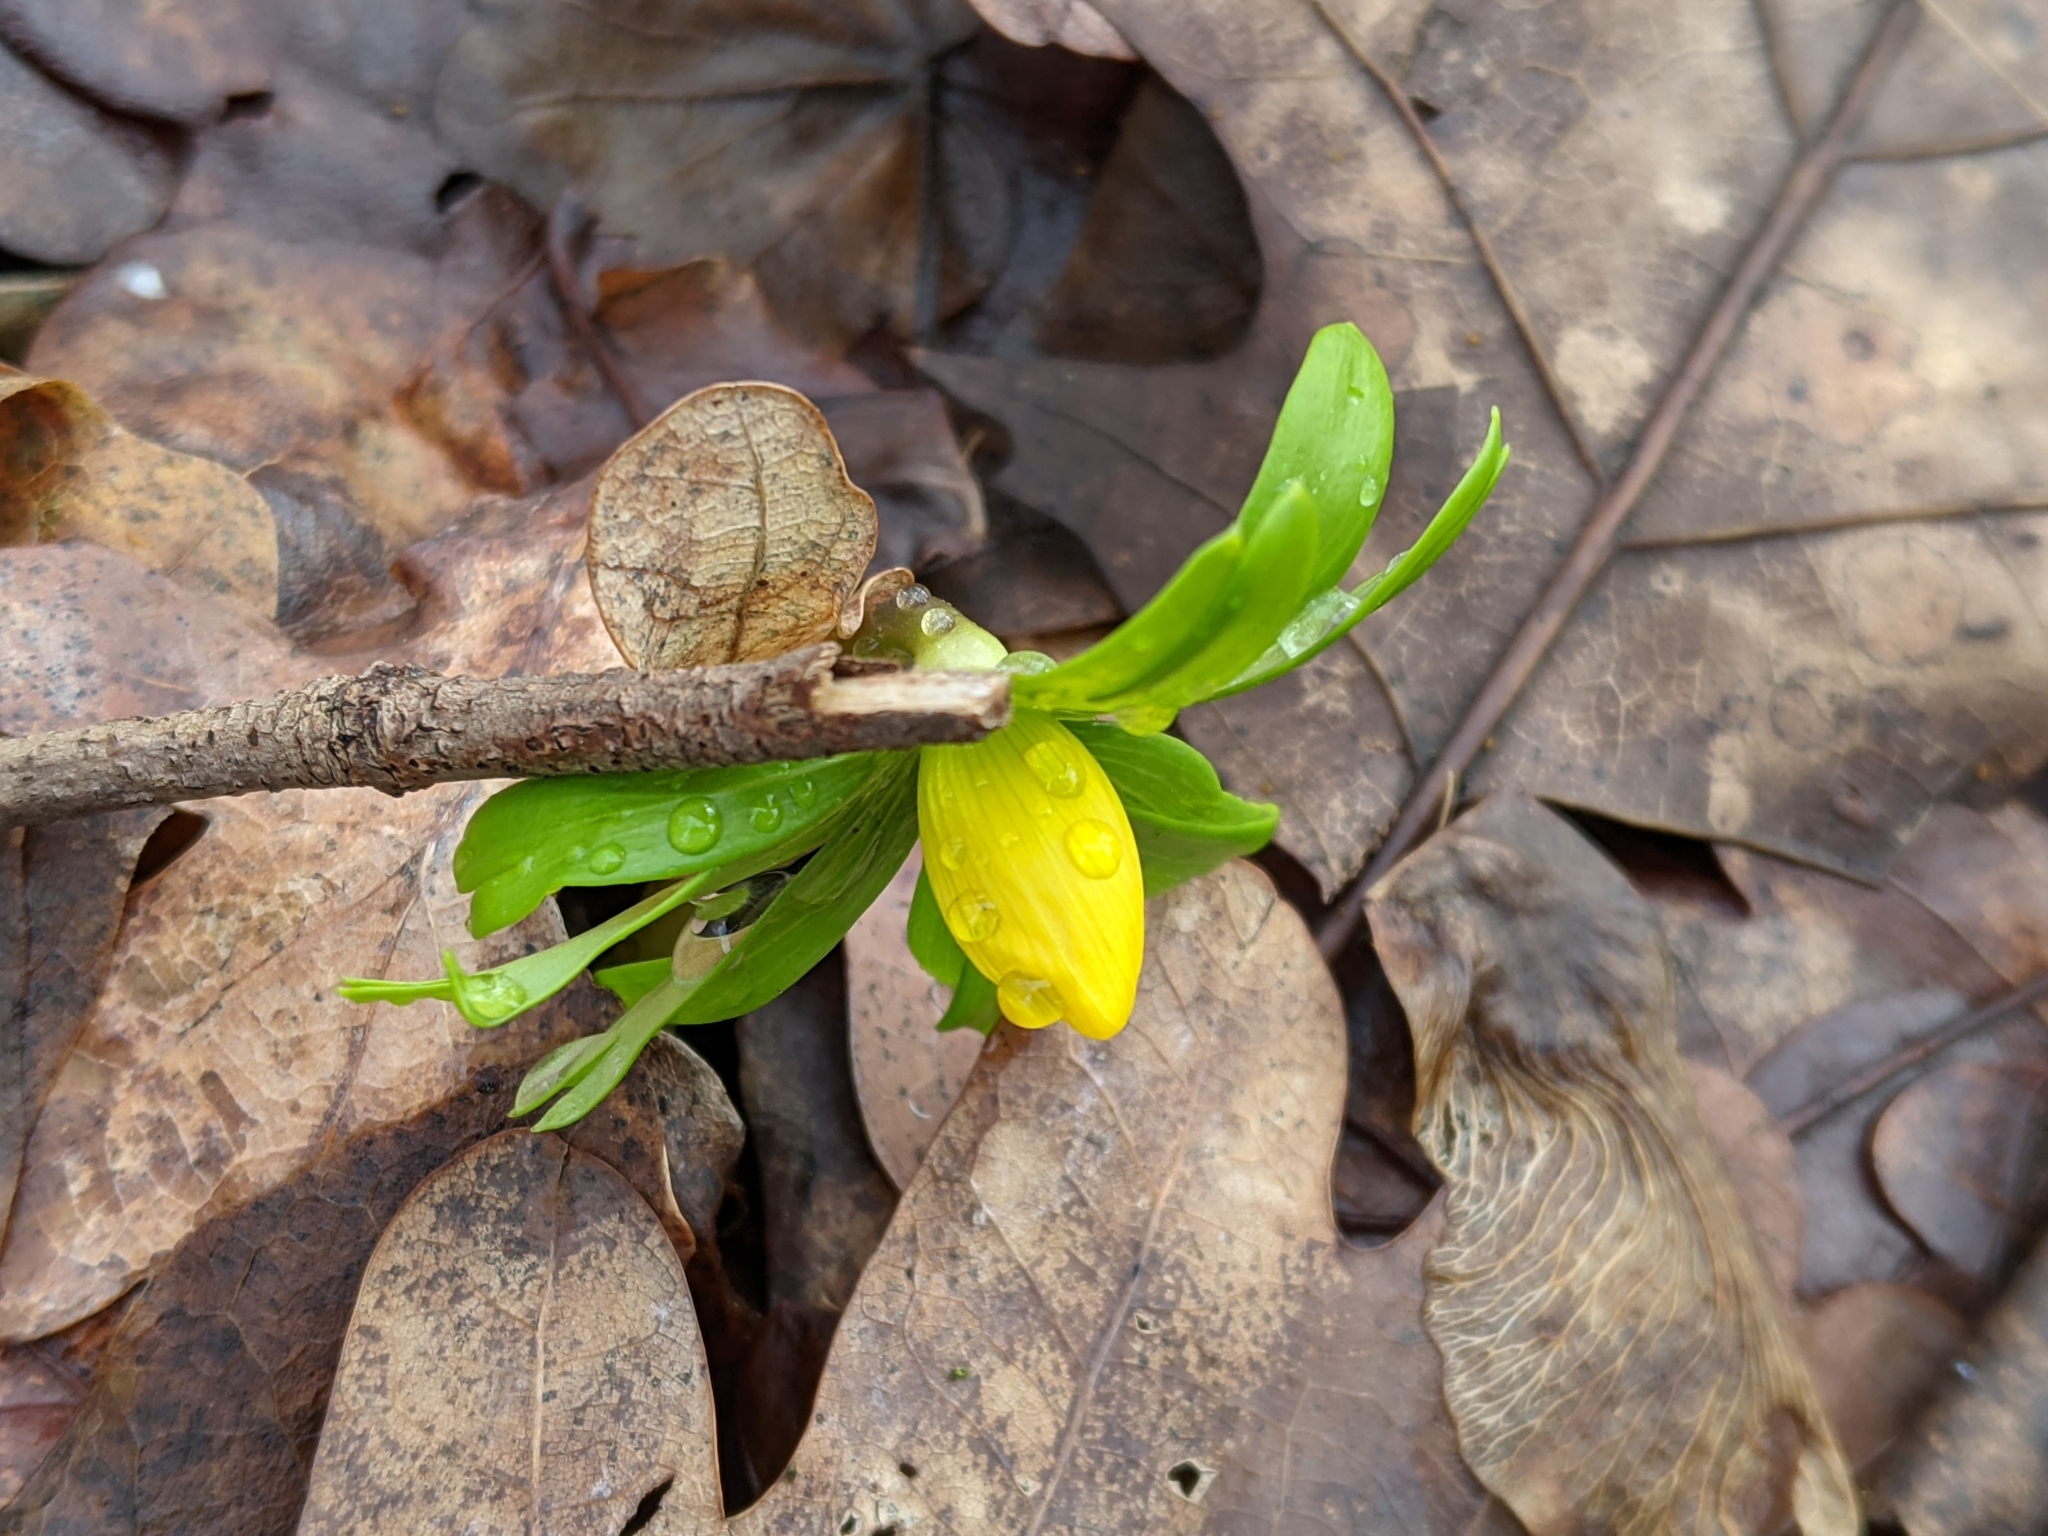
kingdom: Plantae
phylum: Tracheophyta
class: Magnoliopsida
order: Ranunculales
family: Ranunculaceae
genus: Eranthis
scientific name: Eranthis hyemalis
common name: Winter aconite
